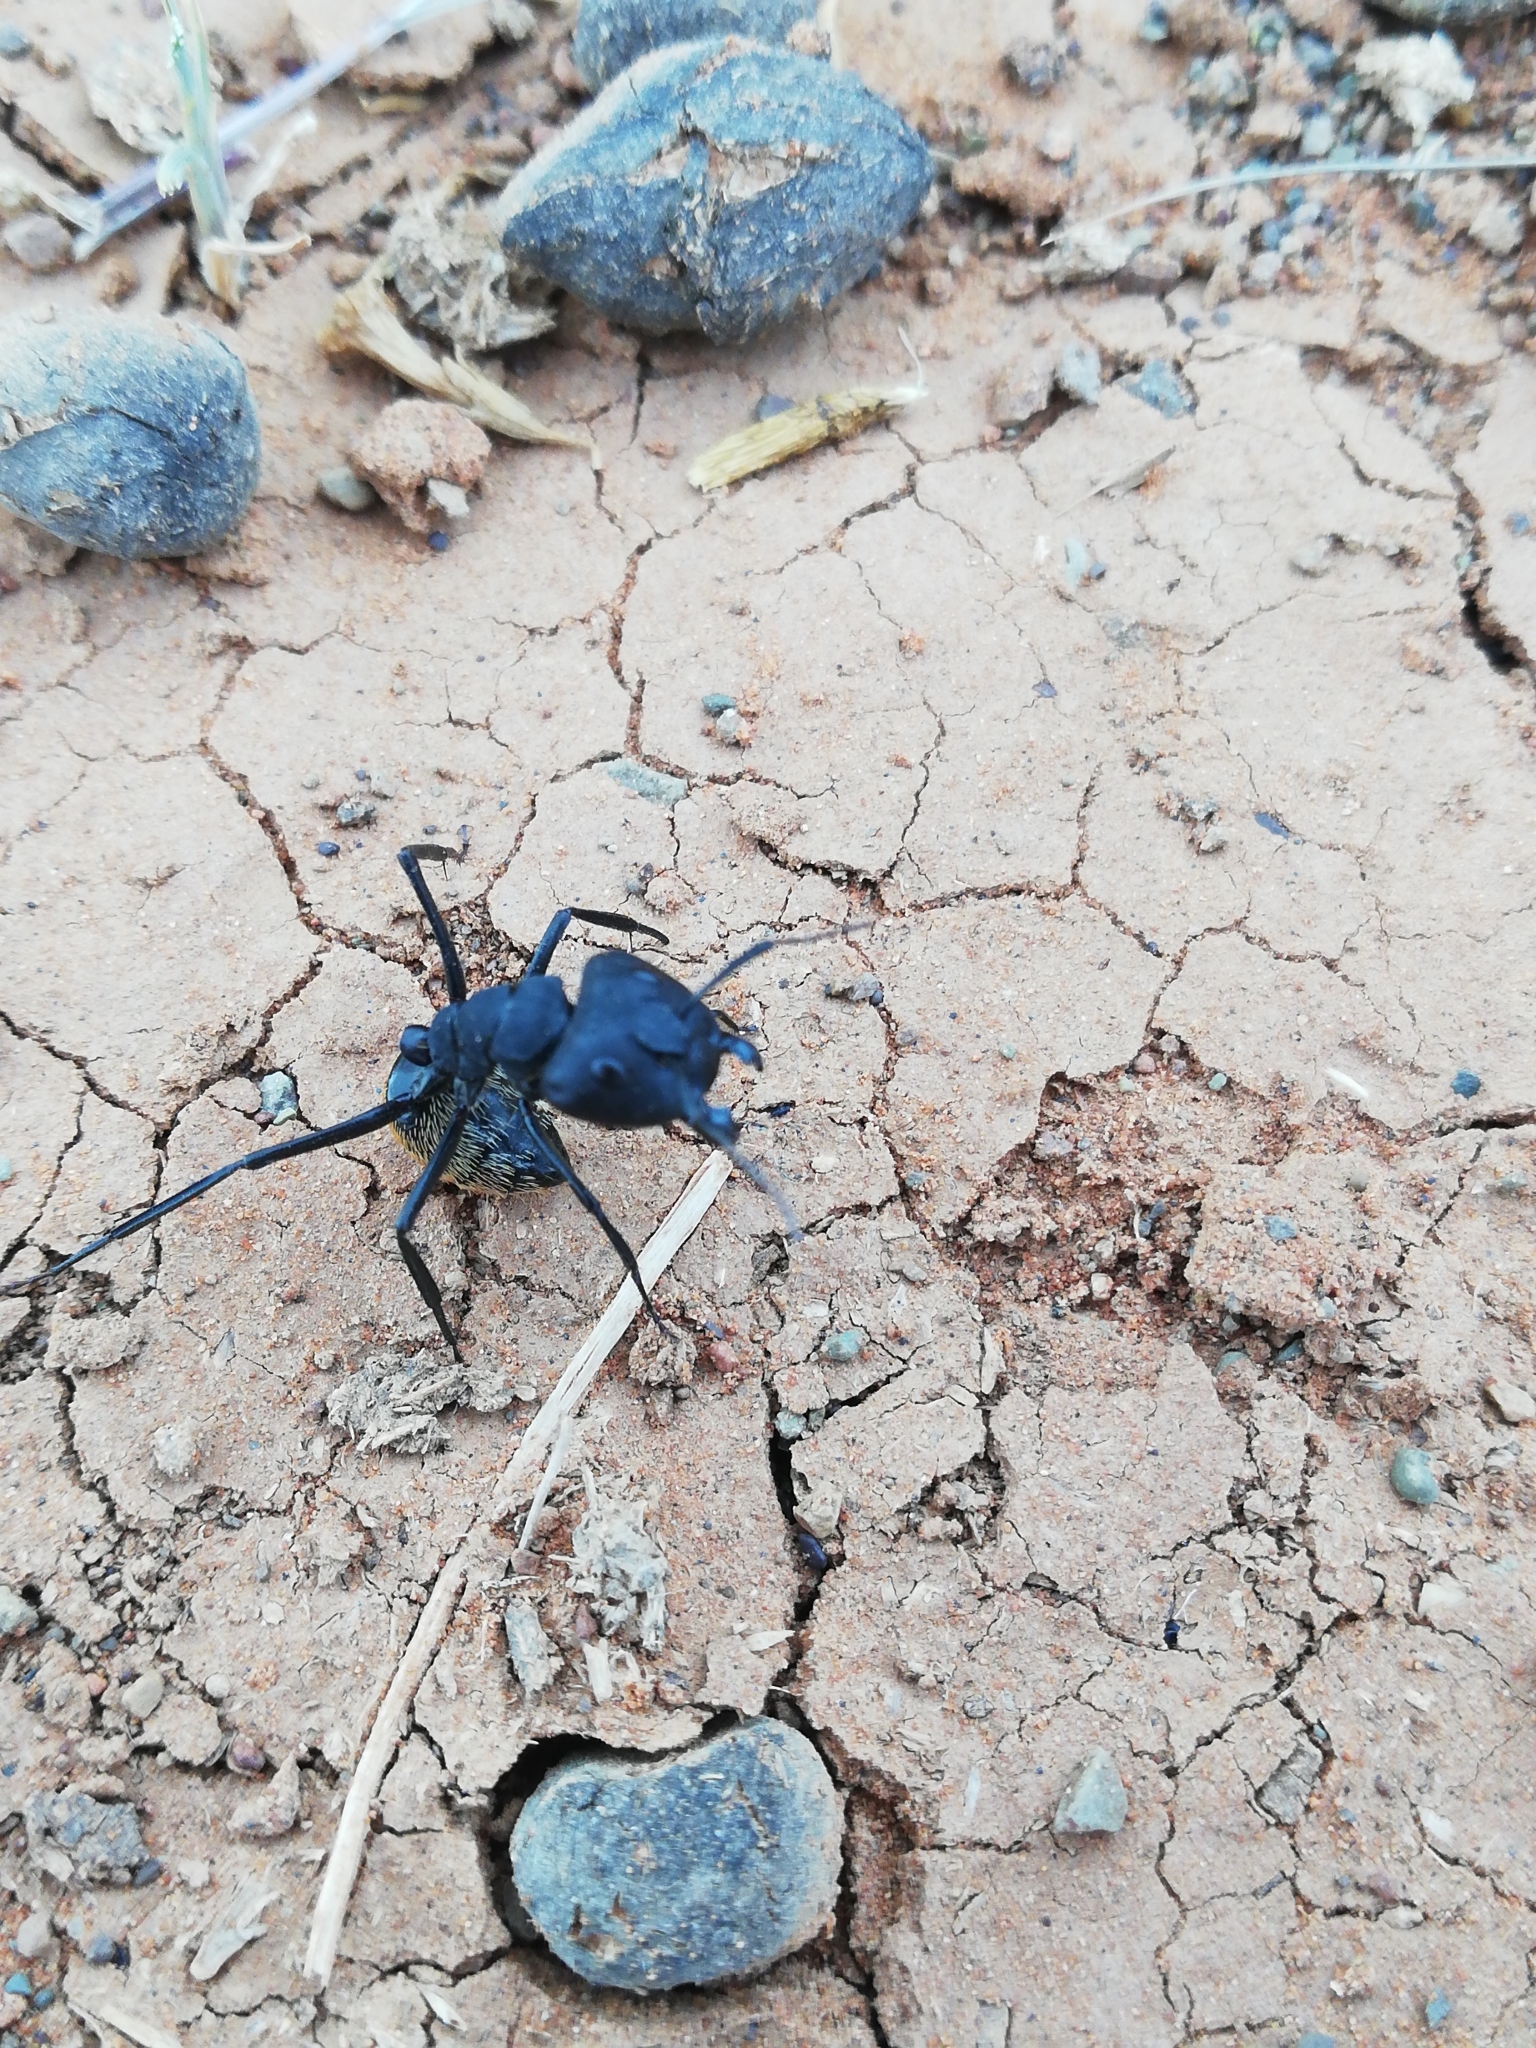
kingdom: Animalia
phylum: Arthropoda
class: Insecta
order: Hymenoptera
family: Formicidae
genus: Camponotus
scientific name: Camponotus fulvopilosus
